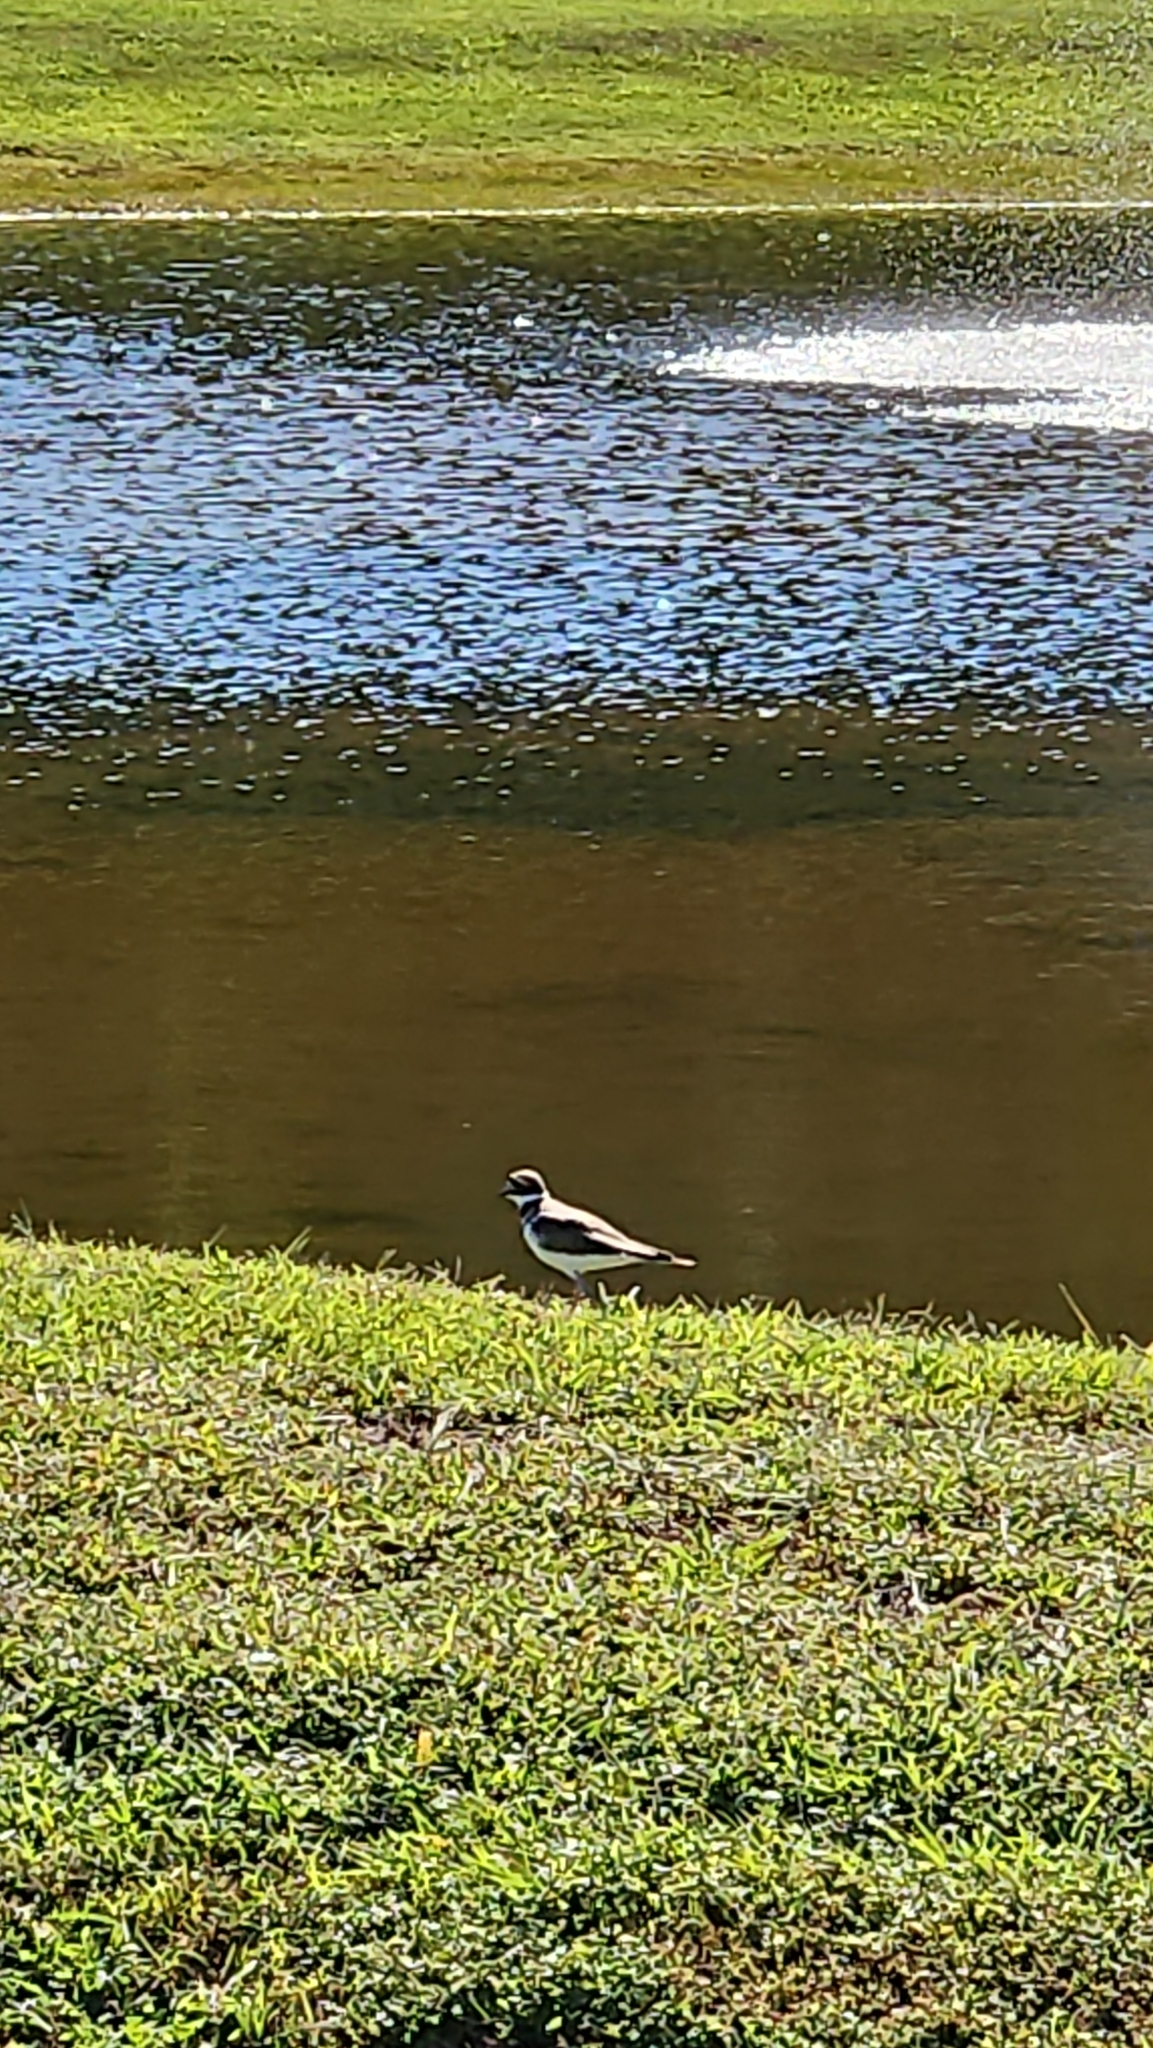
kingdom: Animalia
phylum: Chordata
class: Aves
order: Charadriiformes
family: Charadriidae
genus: Charadrius
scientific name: Charadrius vociferus
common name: Killdeer
